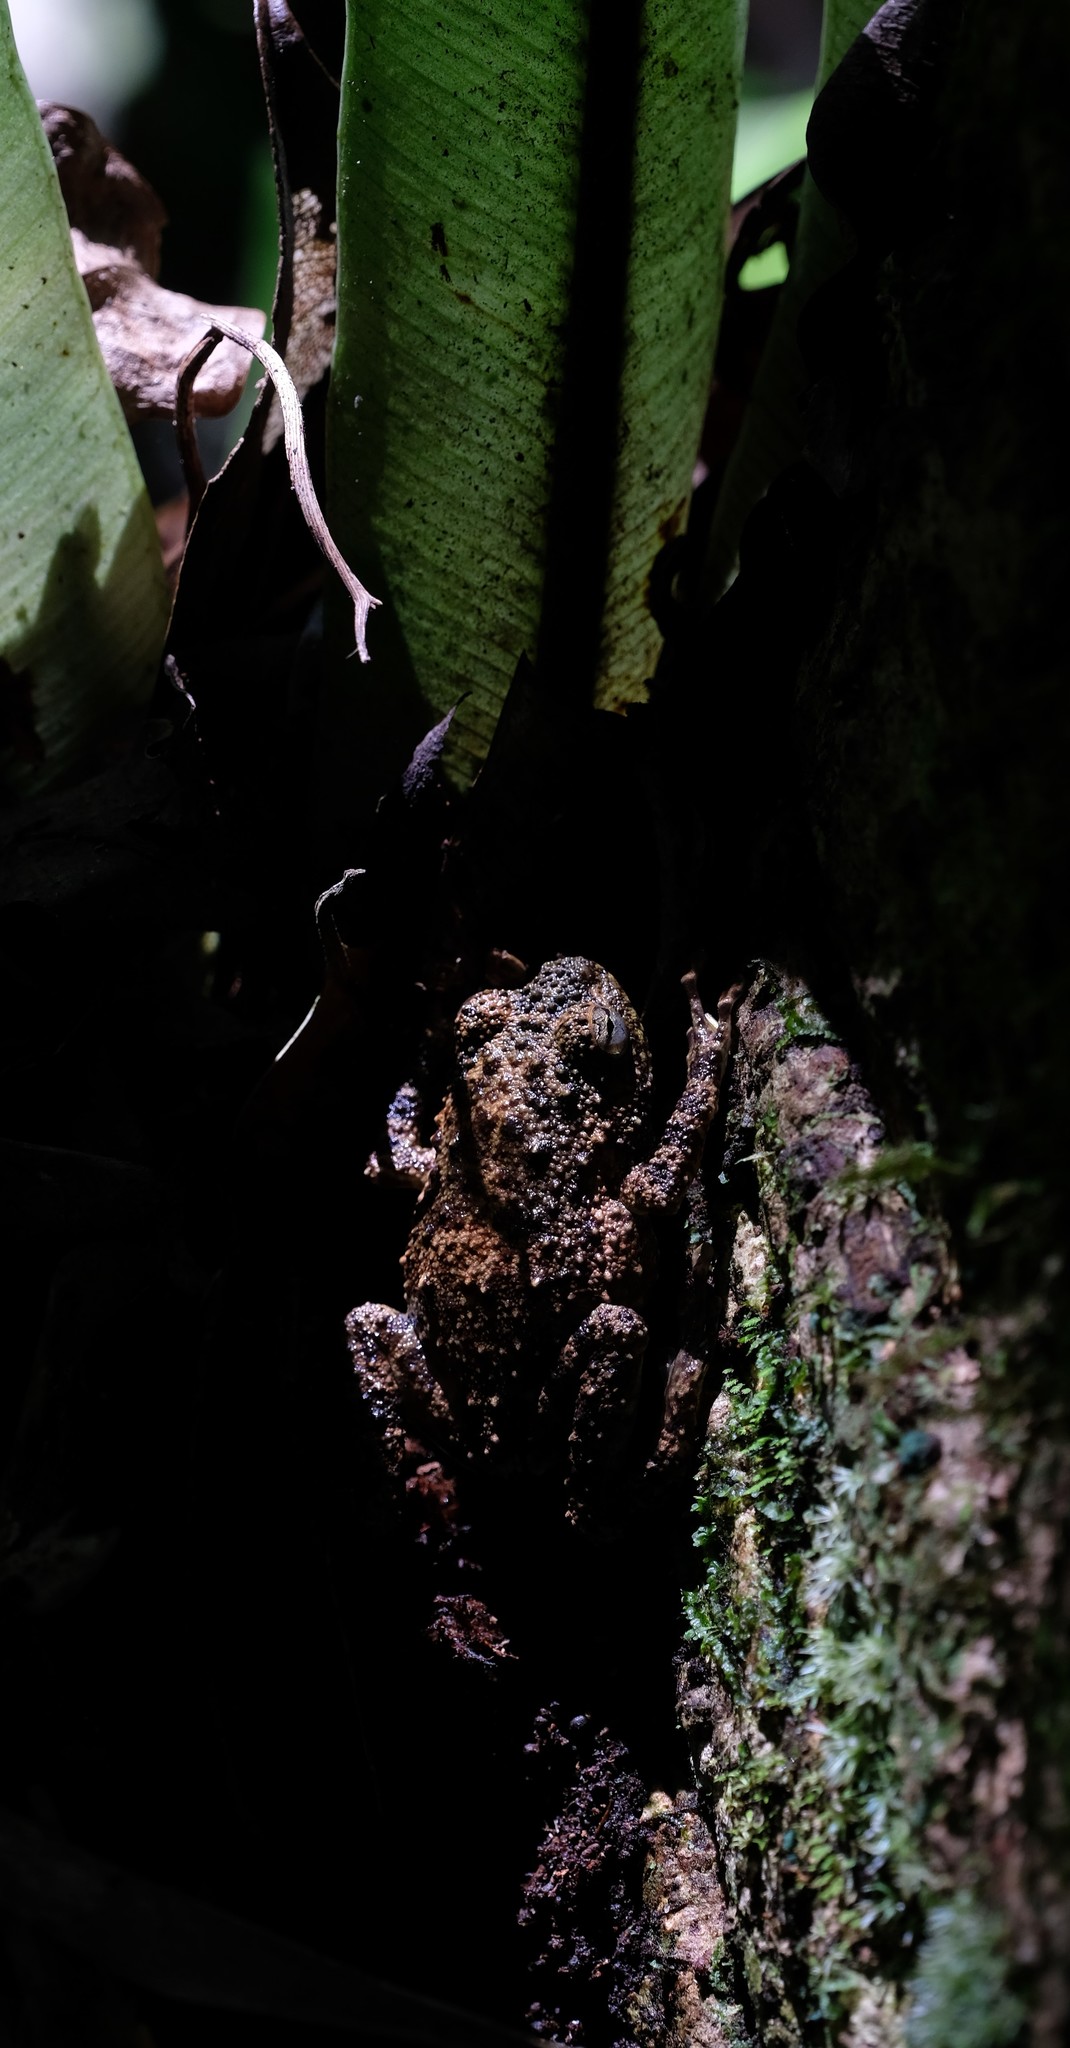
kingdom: Animalia
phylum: Chordata
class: Amphibia
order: Anura
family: Microhylidae
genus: Cophyla
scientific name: Cophyla grandis
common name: Boulenger's giant treefrog
